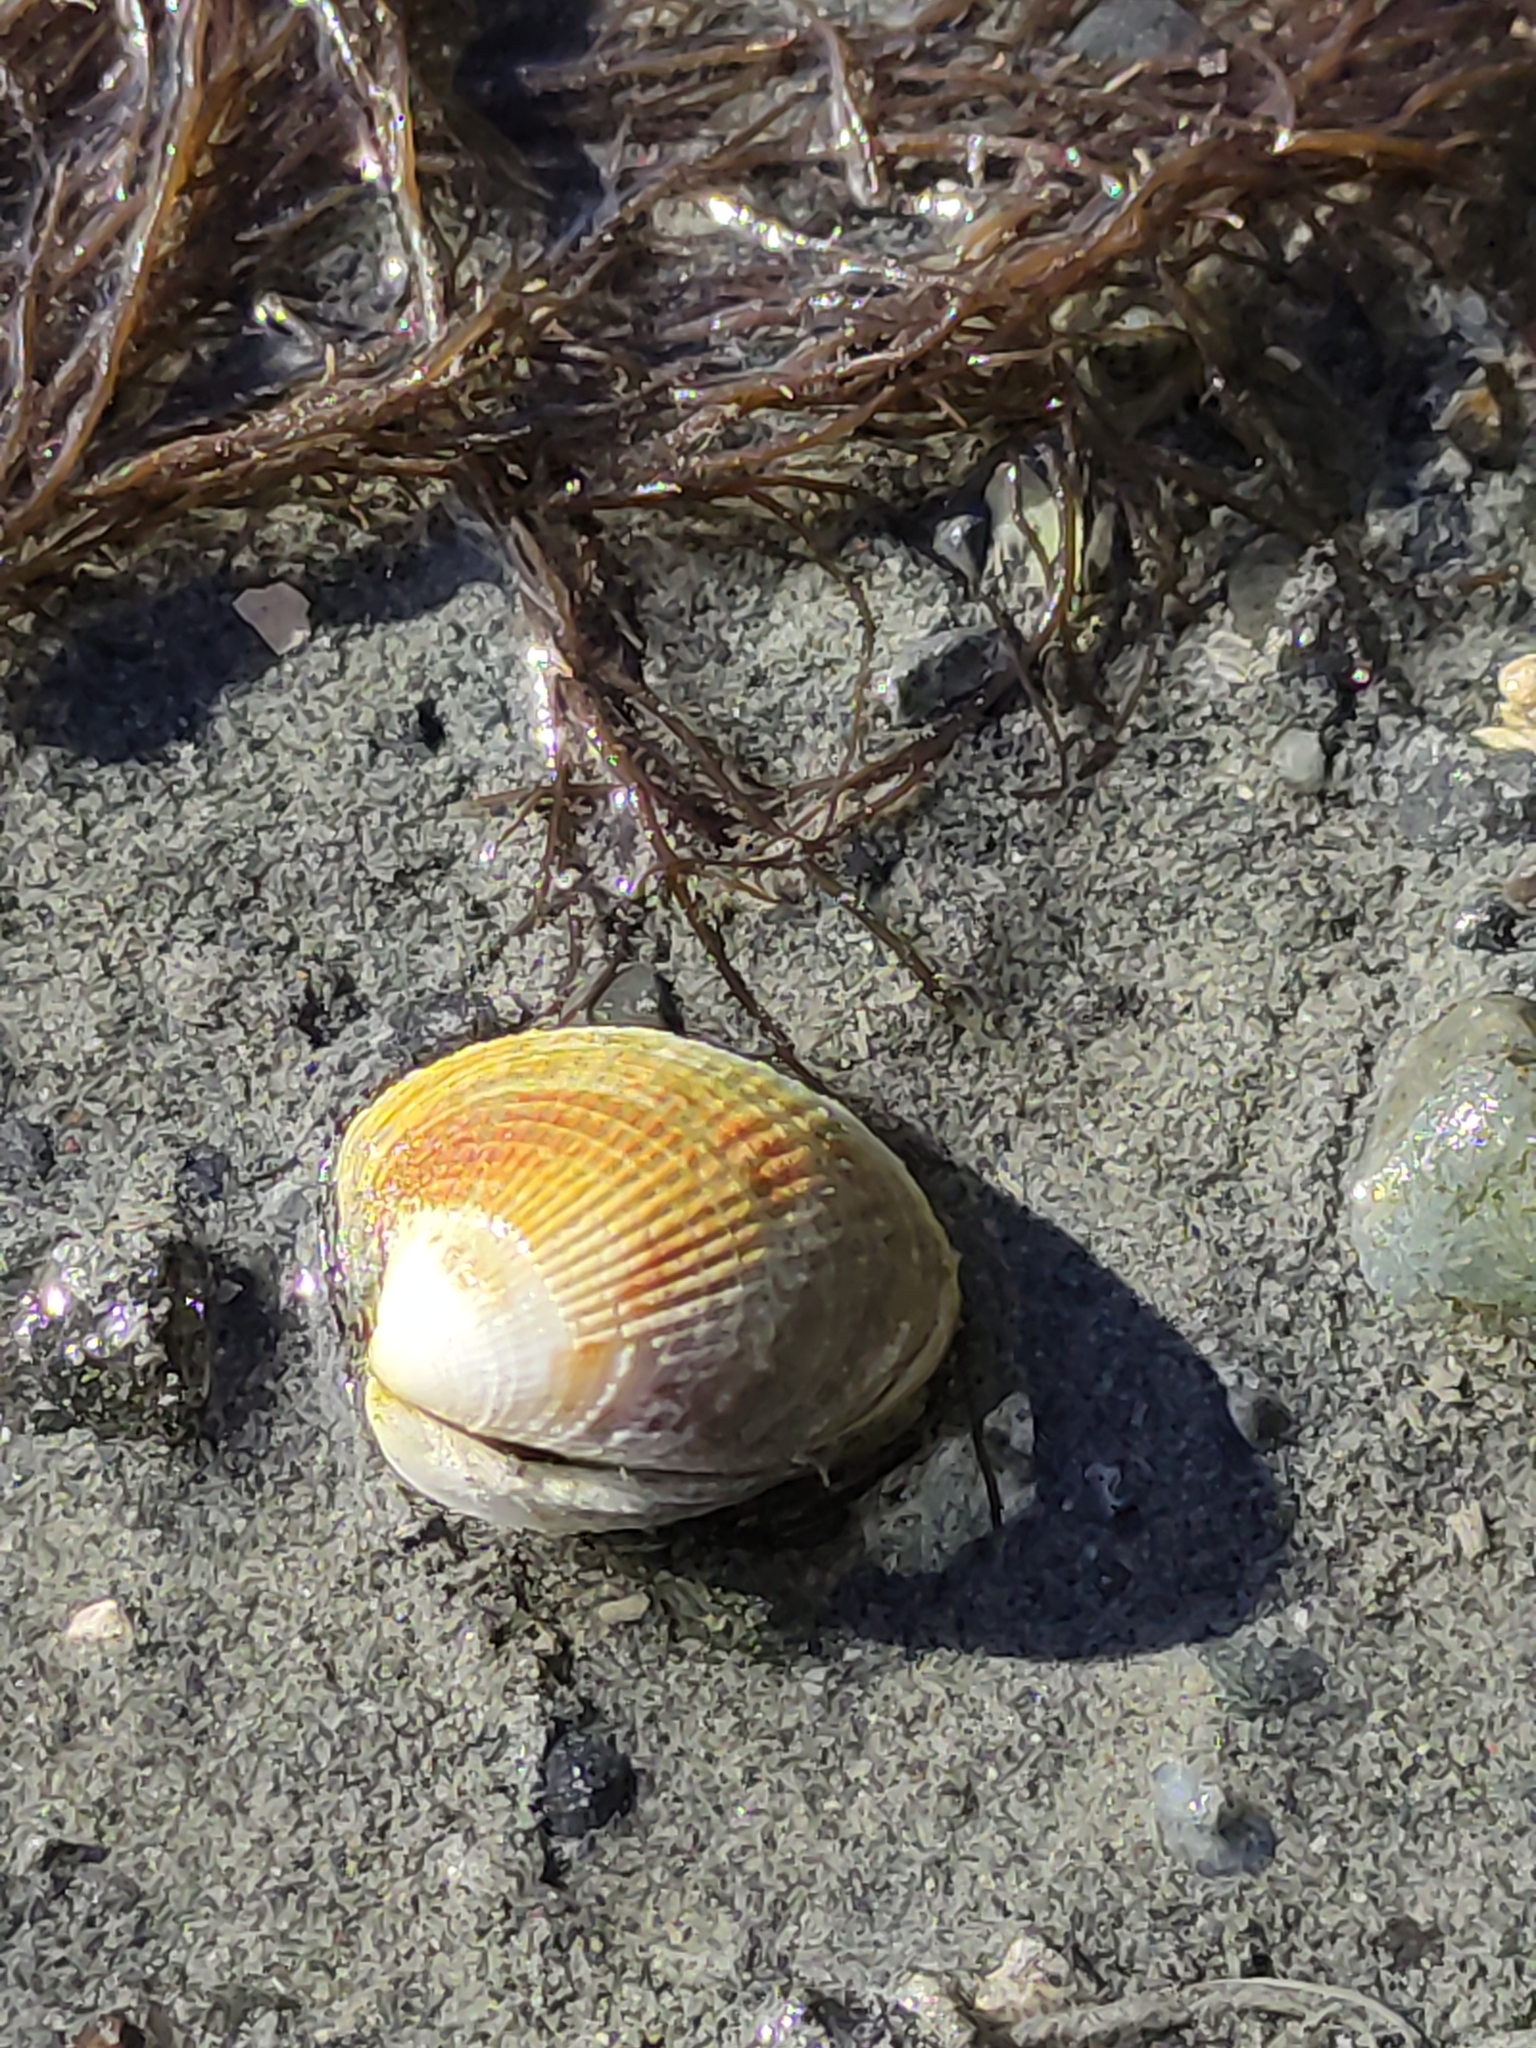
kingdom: Animalia
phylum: Mollusca
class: Bivalvia
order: Venerida
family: Veneridae
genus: Austrovenus
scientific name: Austrovenus stutchburyi
